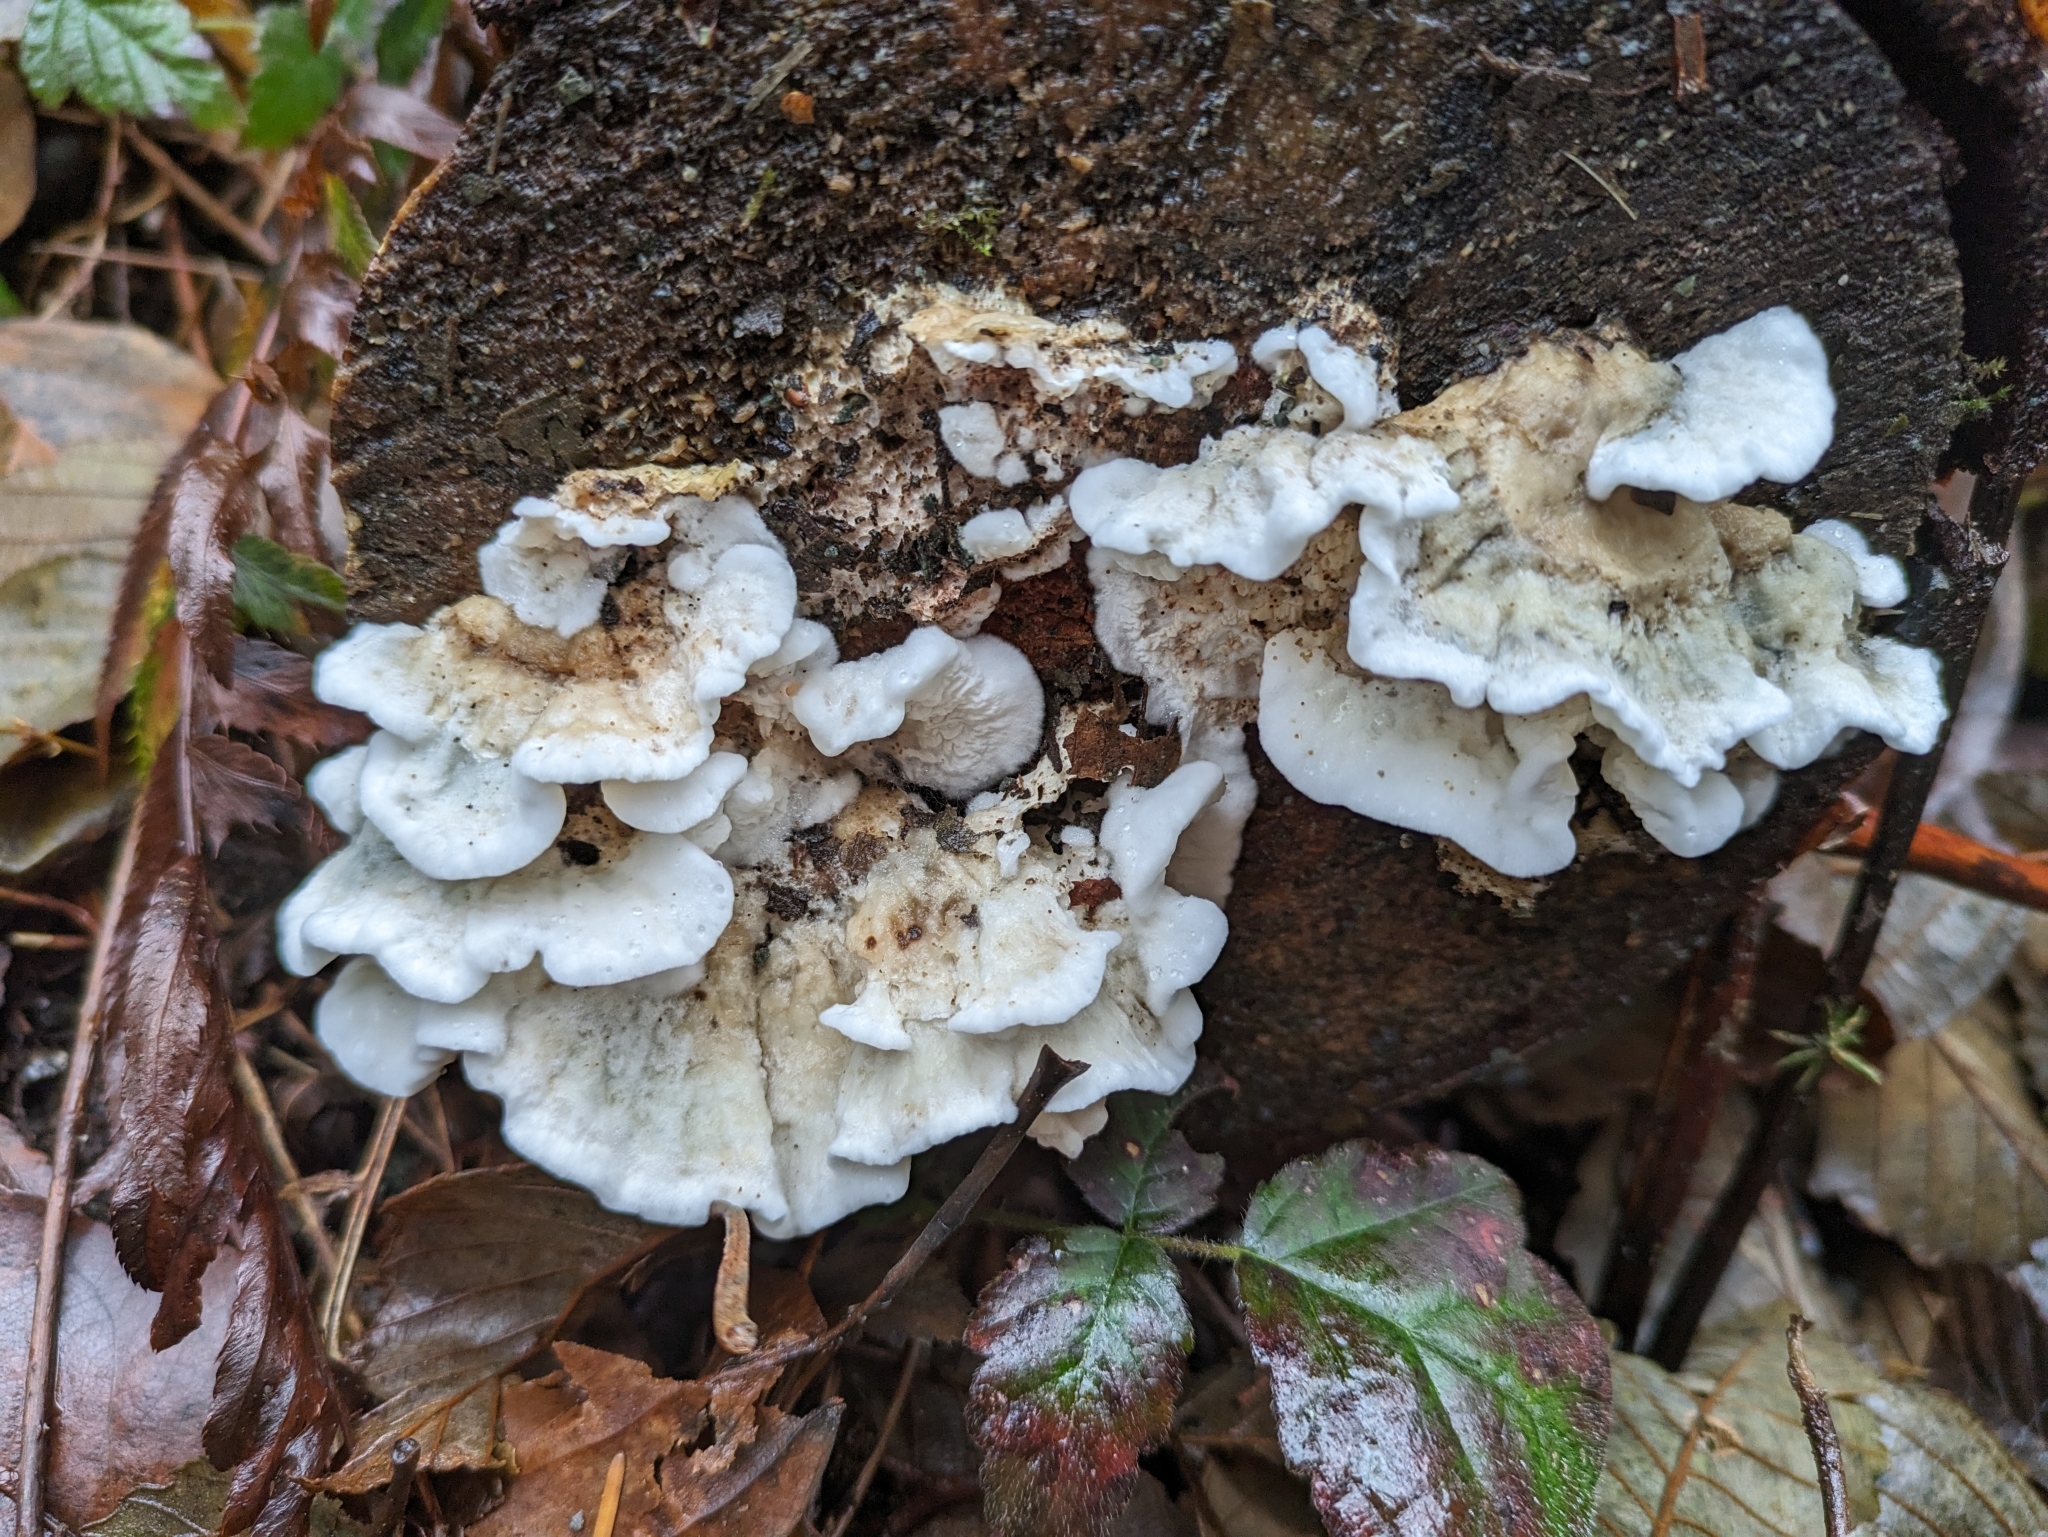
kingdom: Fungi
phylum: Basidiomycota
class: Agaricomycetes
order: Agaricales
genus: Plicatura
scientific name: Plicatura nivea
